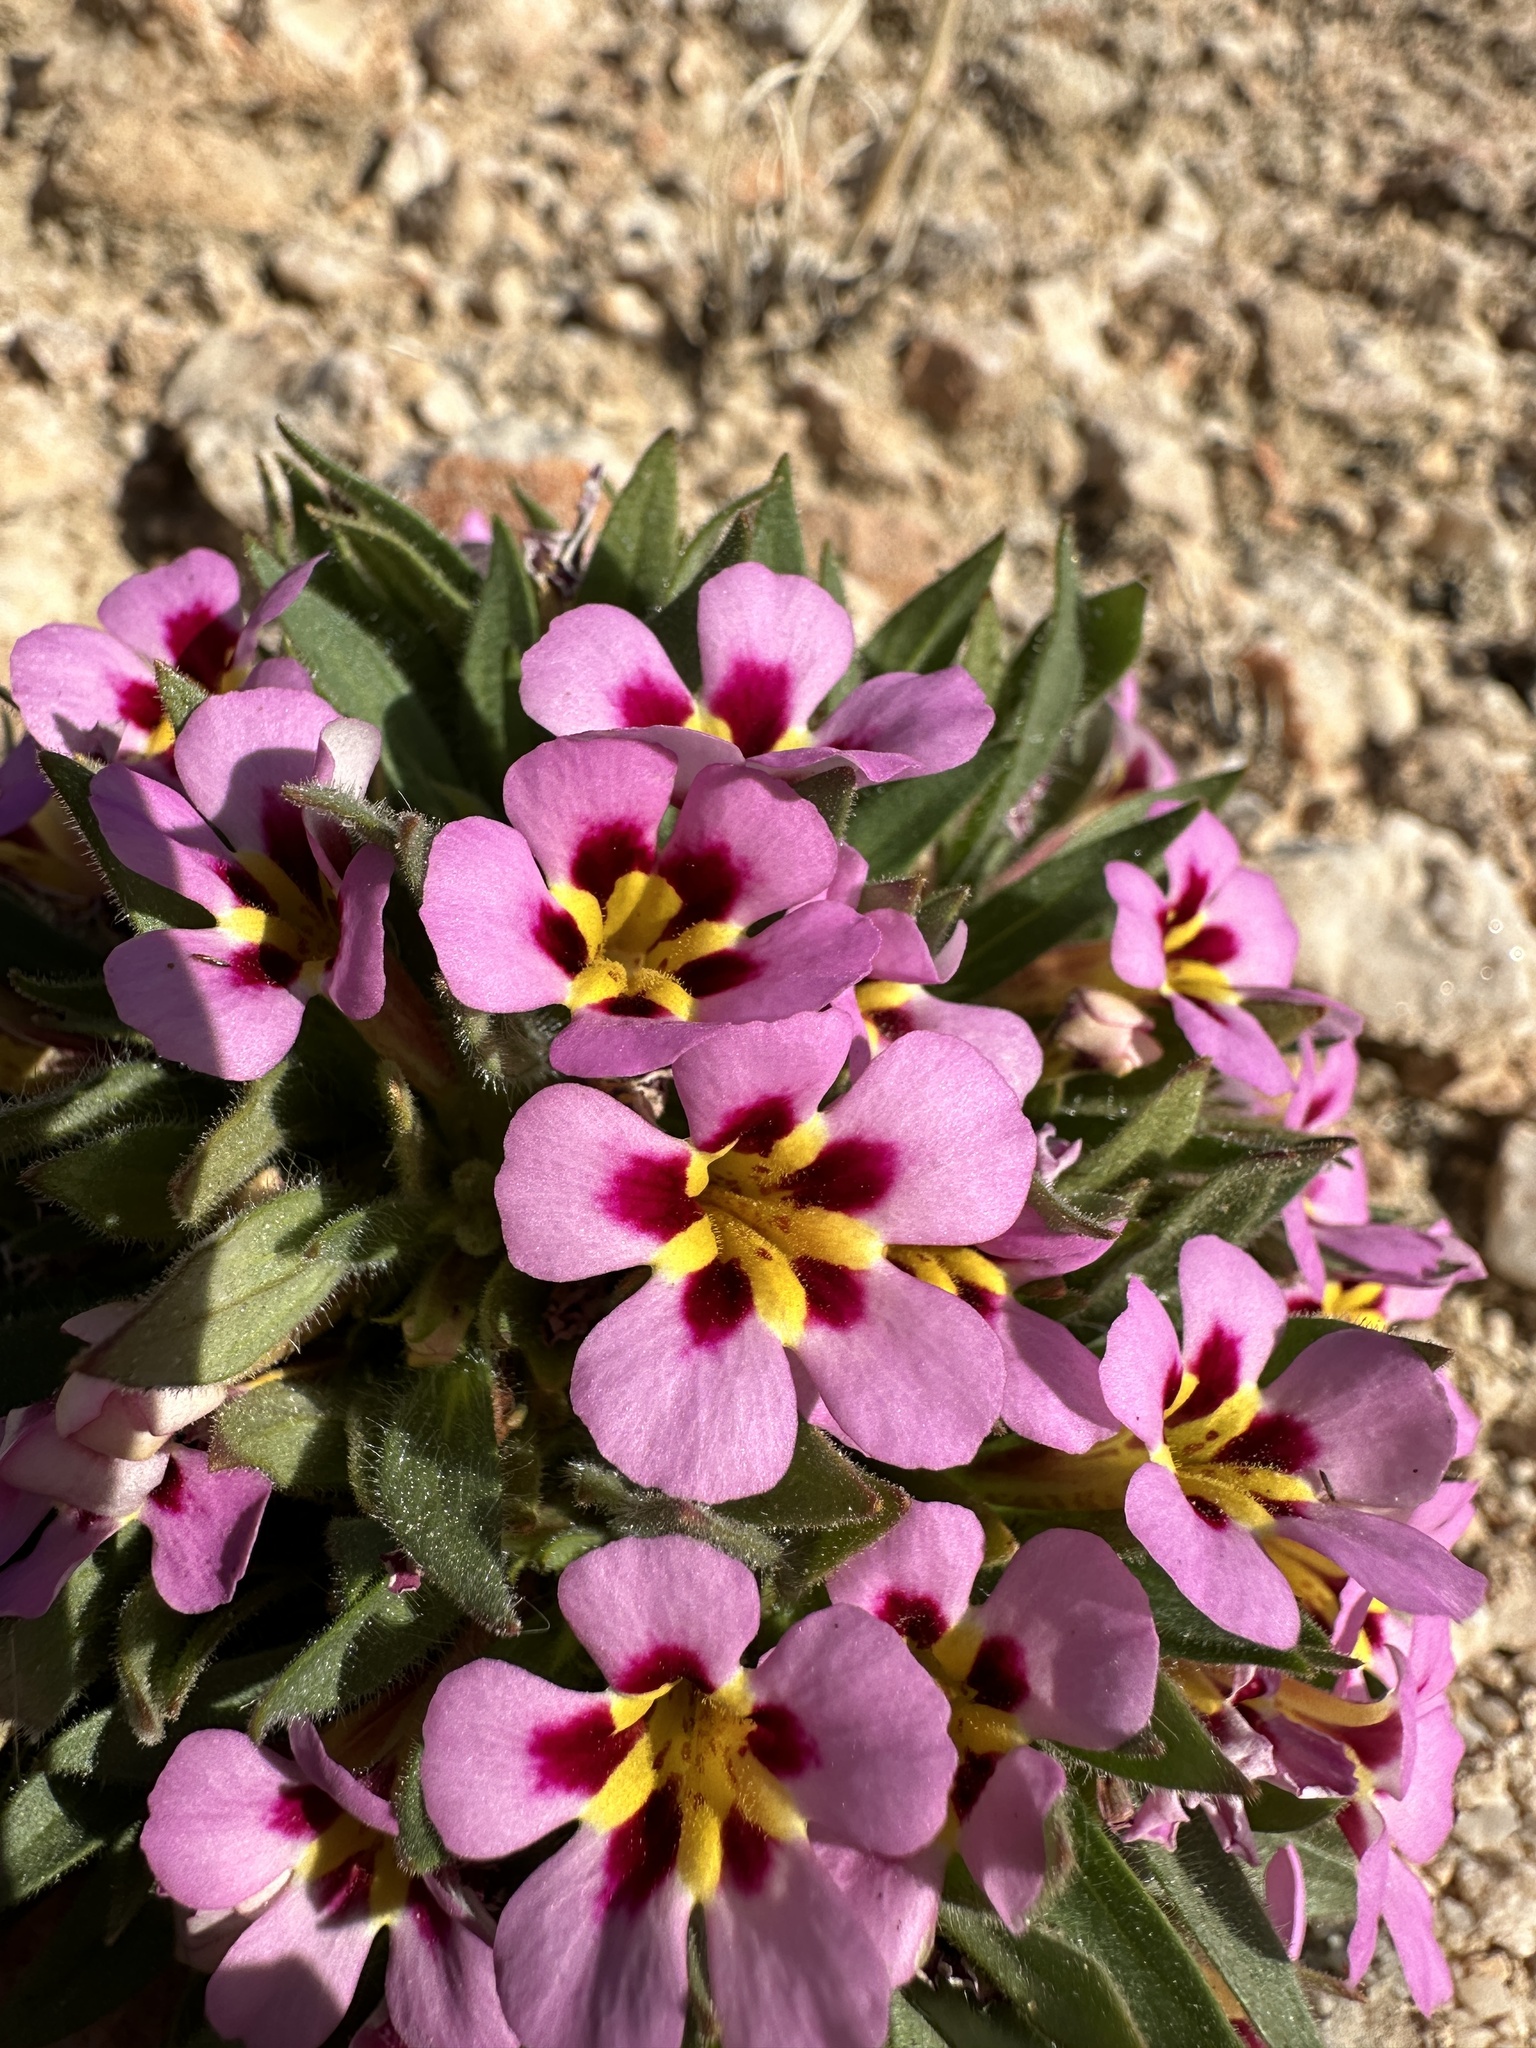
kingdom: Plantae
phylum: Tracheophyta
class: Magnoliopsida
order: Lamiales
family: Phrymaceae
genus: Diplacus
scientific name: Diplacus rupicola
